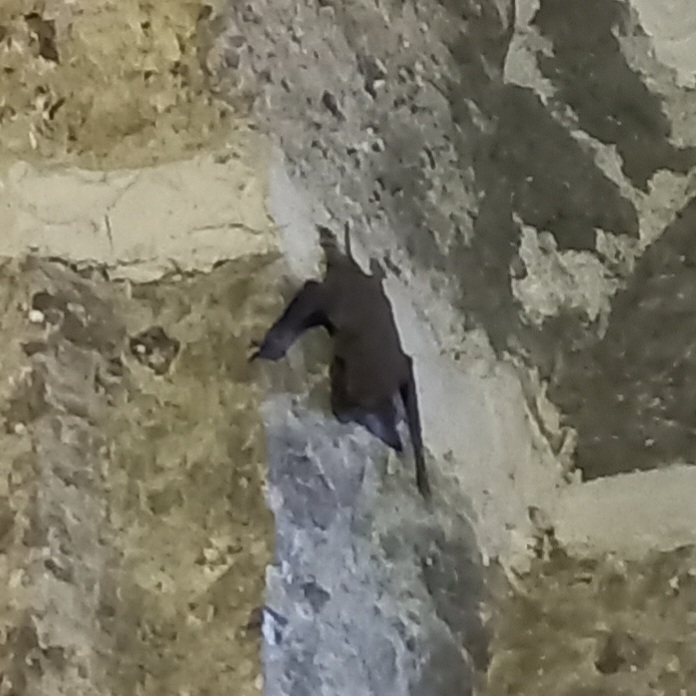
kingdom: Animalia
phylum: Chordata
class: Mammalia
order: Chiroptera
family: Molossidae
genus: Tadarida
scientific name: Tadarida brasiliensis
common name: Mexican free-tailed bat
